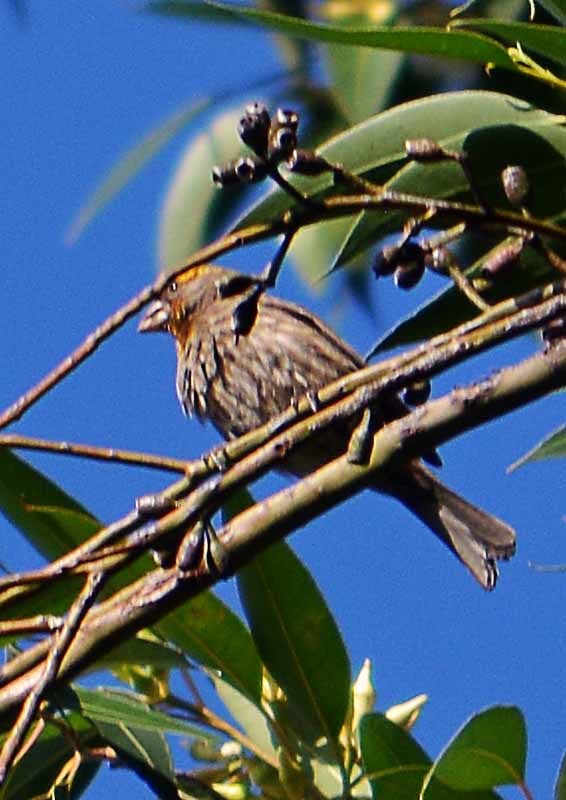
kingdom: Animalia
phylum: Chordata
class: Aves
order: Passeriformes
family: Fringillidae
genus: Haemorhous
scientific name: Haemorhous mexicanus
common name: House finch
